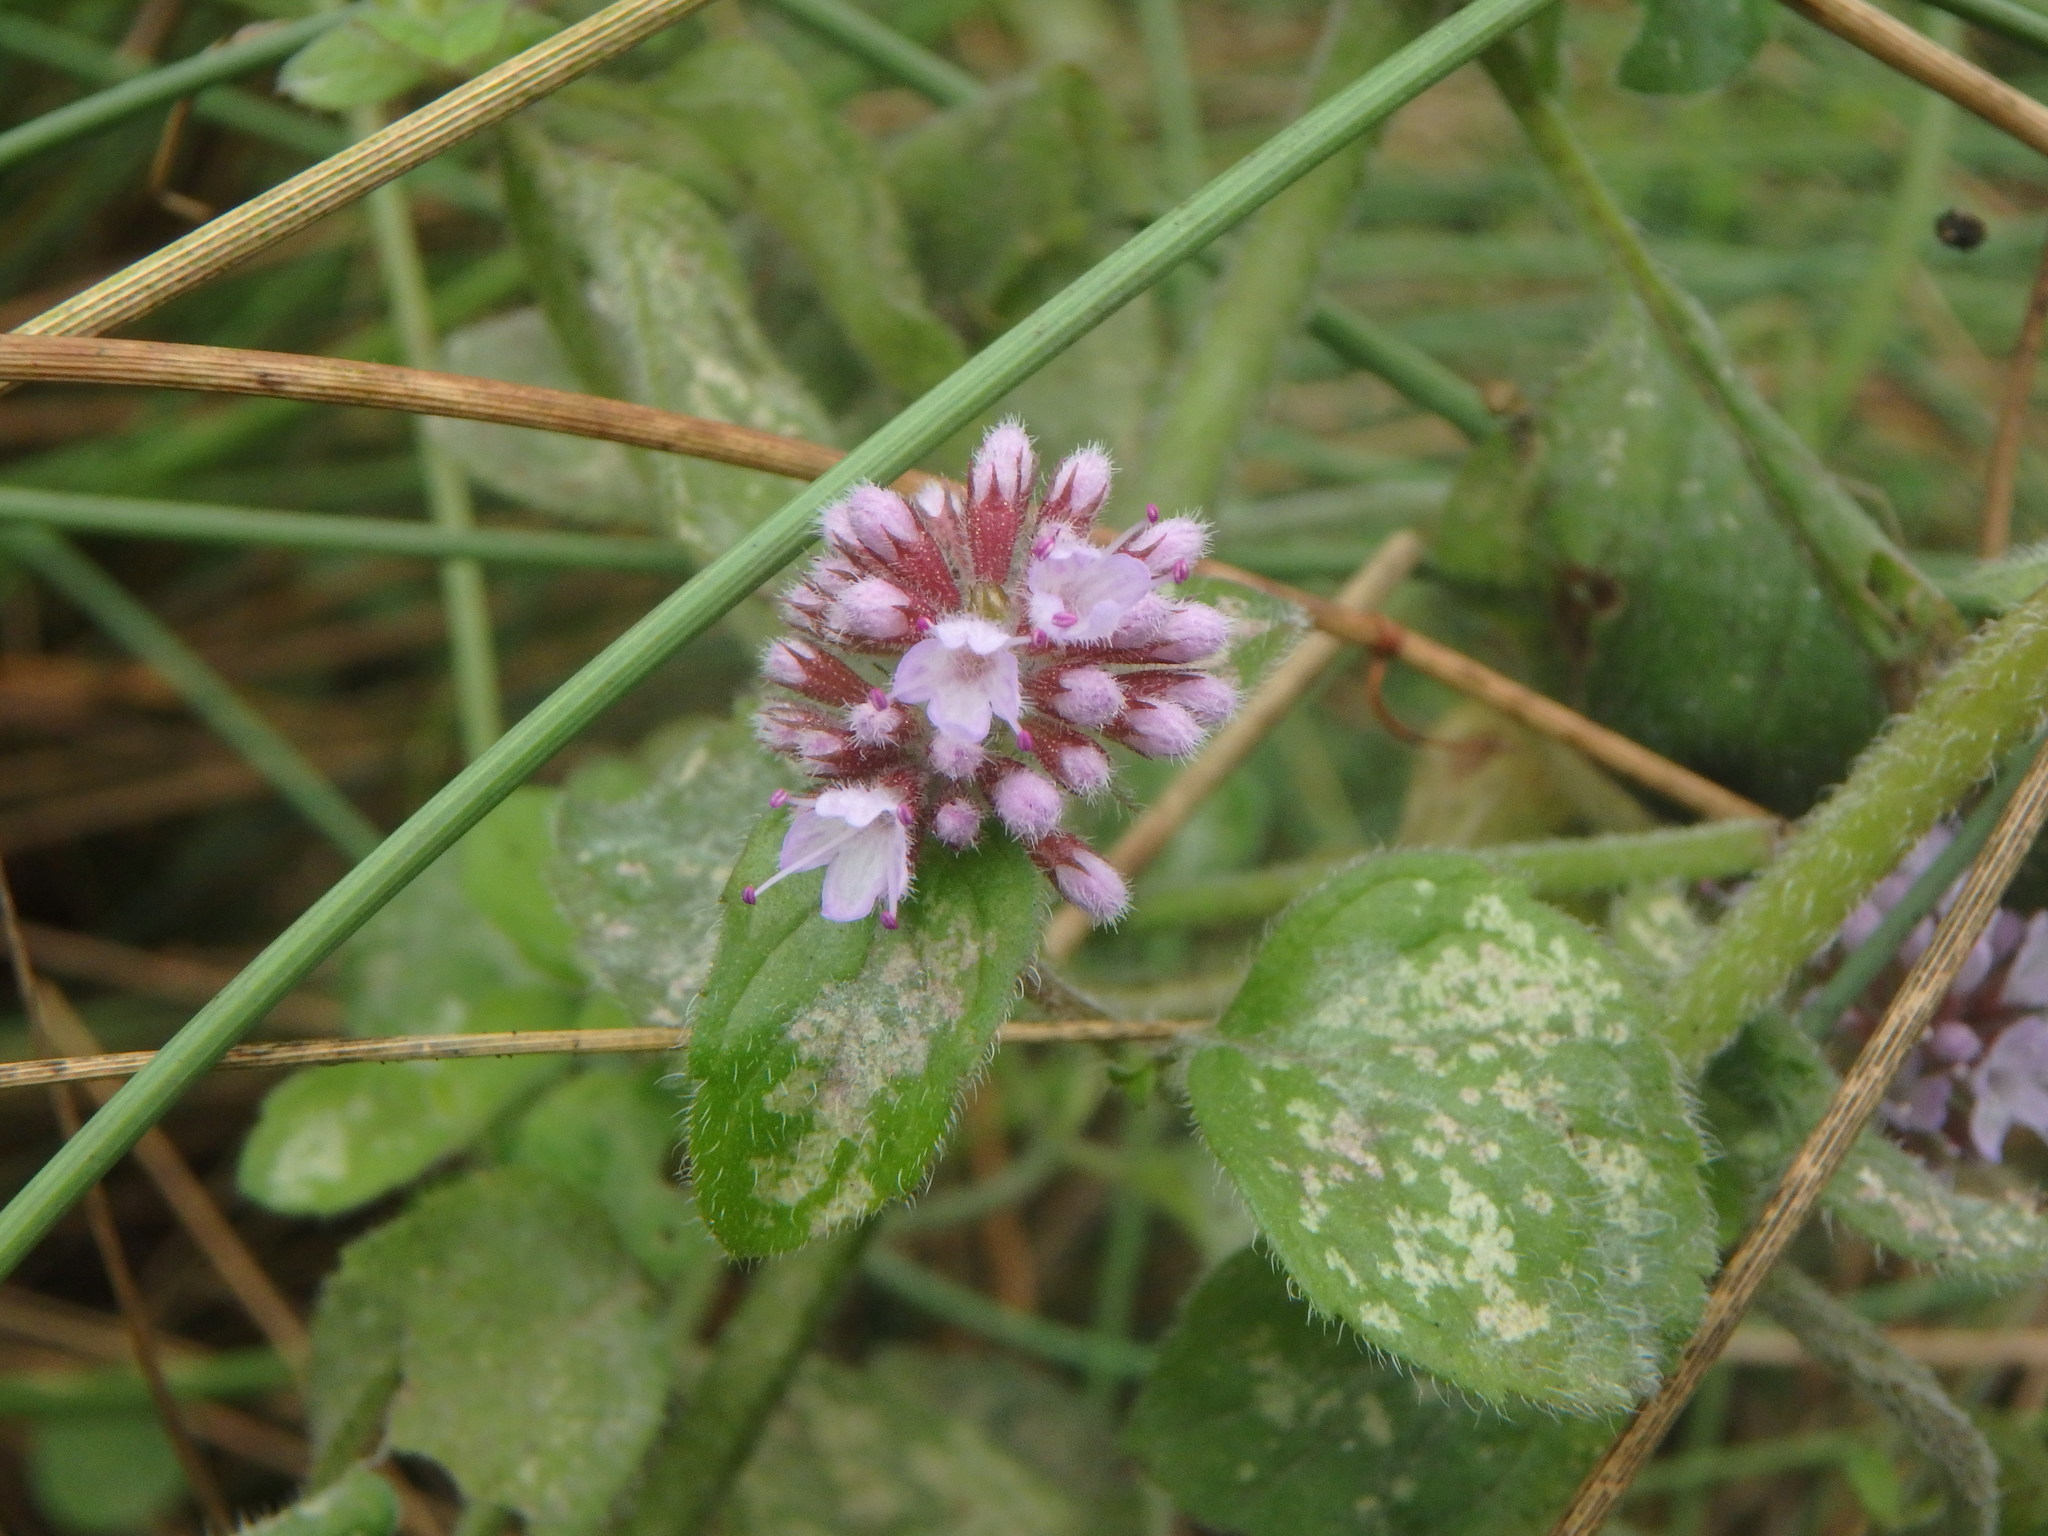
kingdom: Plantae
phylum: Tracheophyta
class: Magnoliopsida
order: Lamiales
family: Lamiaceae
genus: Mentha
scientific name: Mentha aquatica
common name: Water mint
